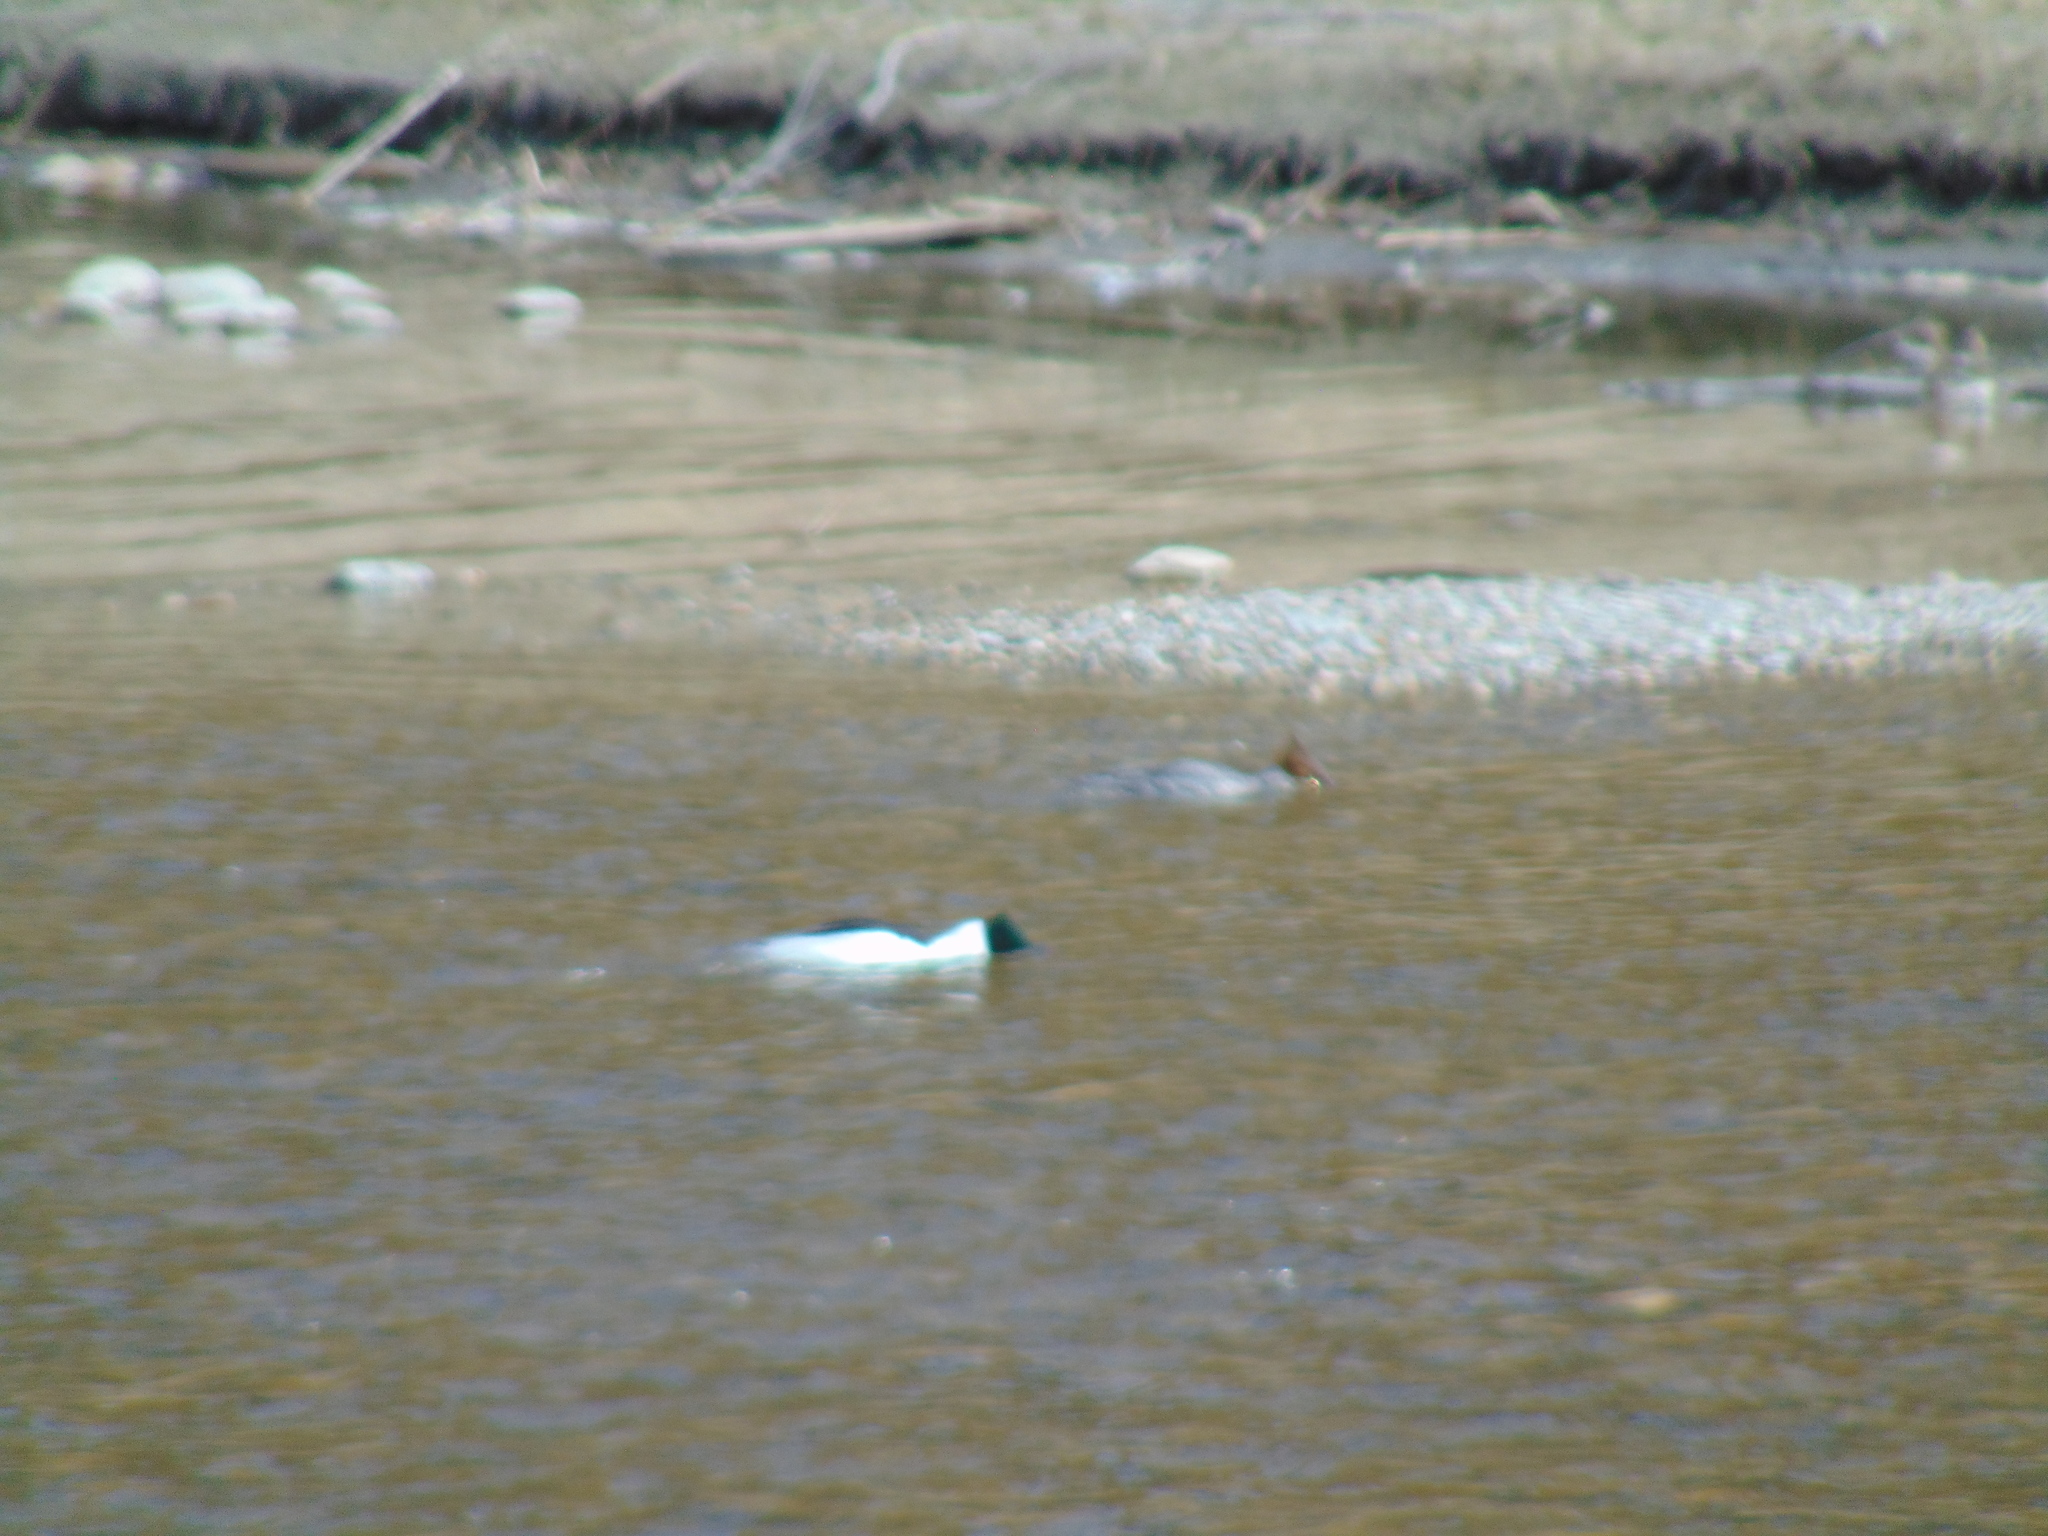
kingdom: Animalia
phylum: Chordata
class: Aves
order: Anseriformes
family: Anatidae
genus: Mergus
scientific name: Mergus merganser
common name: Common merganser
